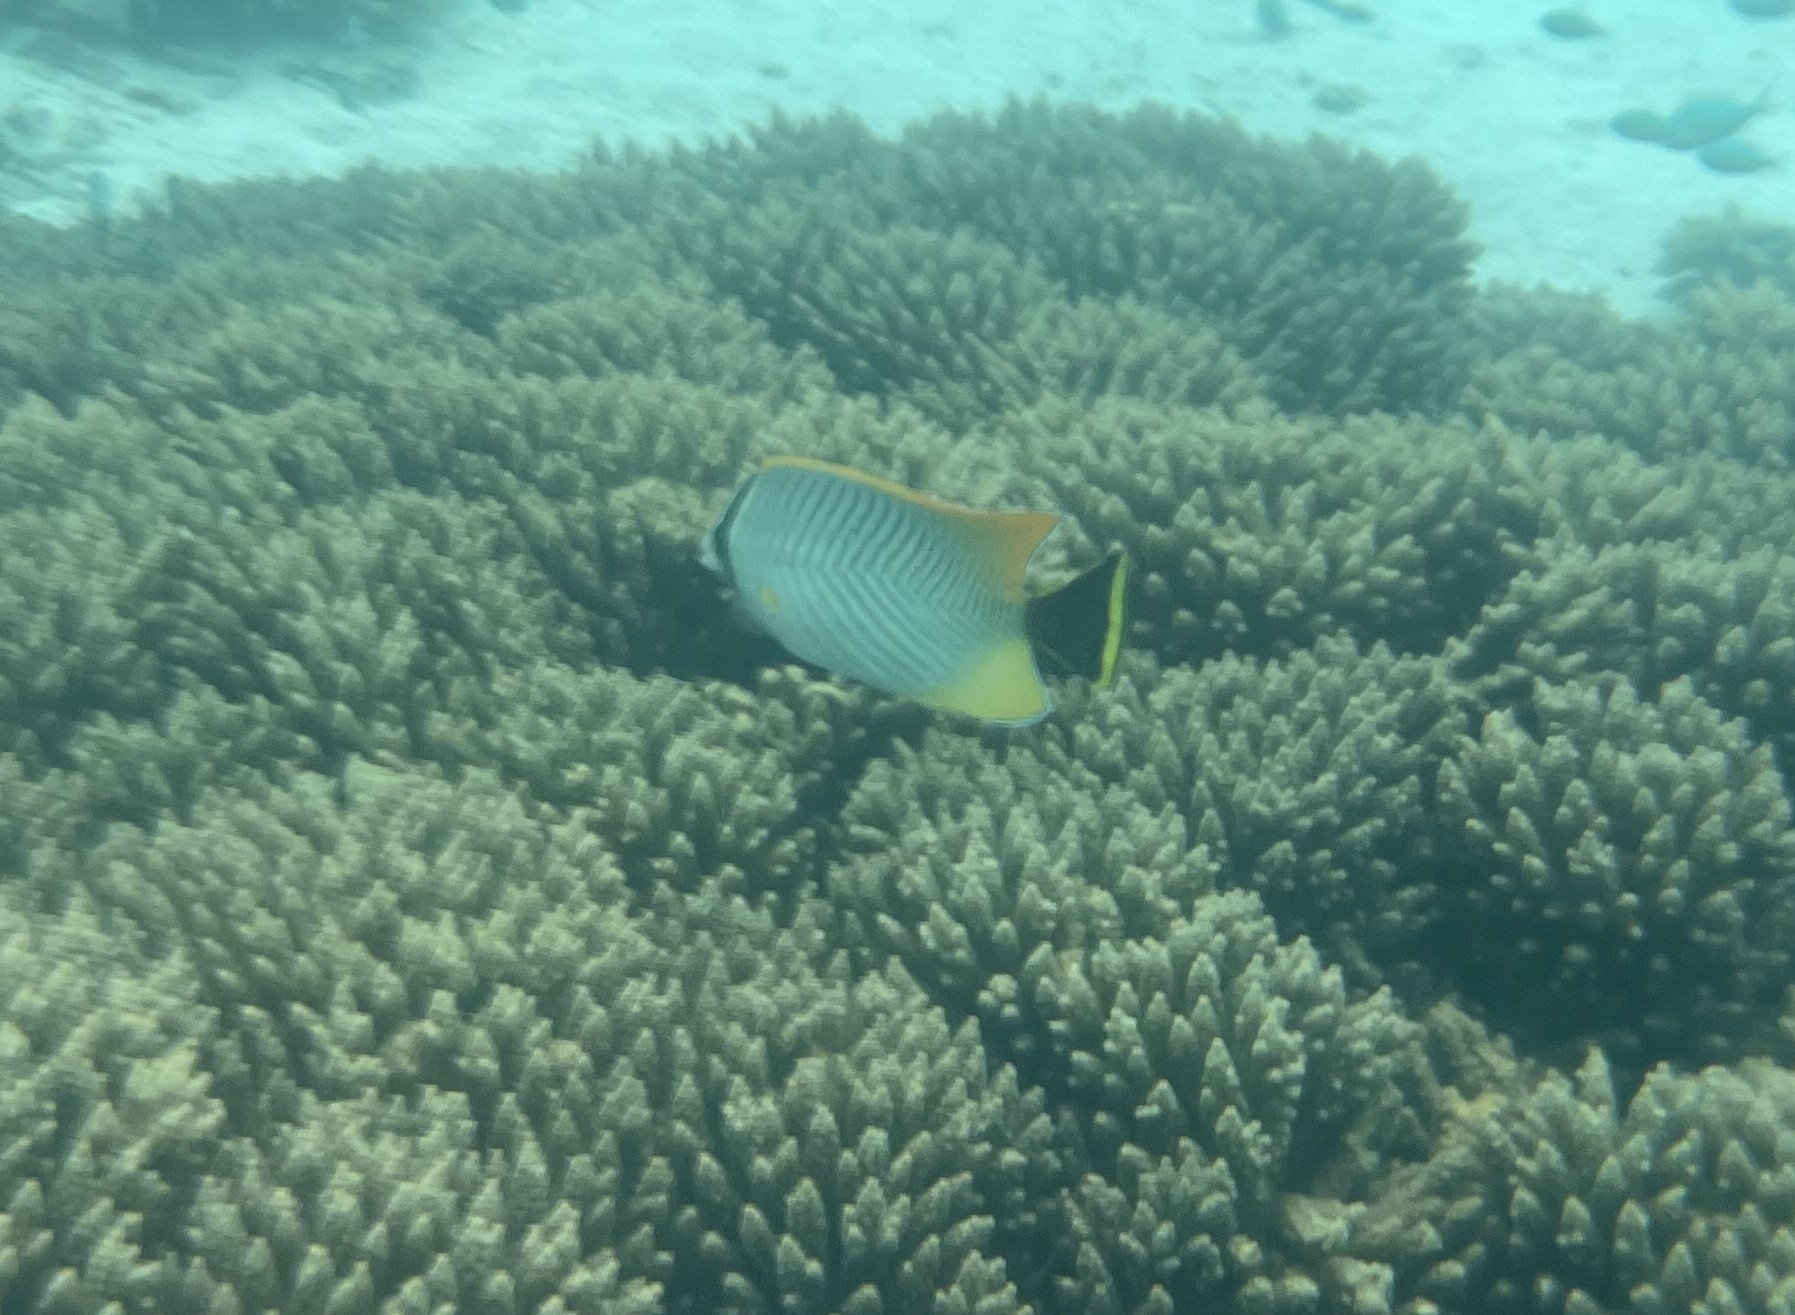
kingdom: Animalia
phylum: Chordata
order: Perciformes
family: Chaetodontidae
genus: Chaetodon
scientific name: Chaetodon trifascialis
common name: Chevroned butterflyfish
